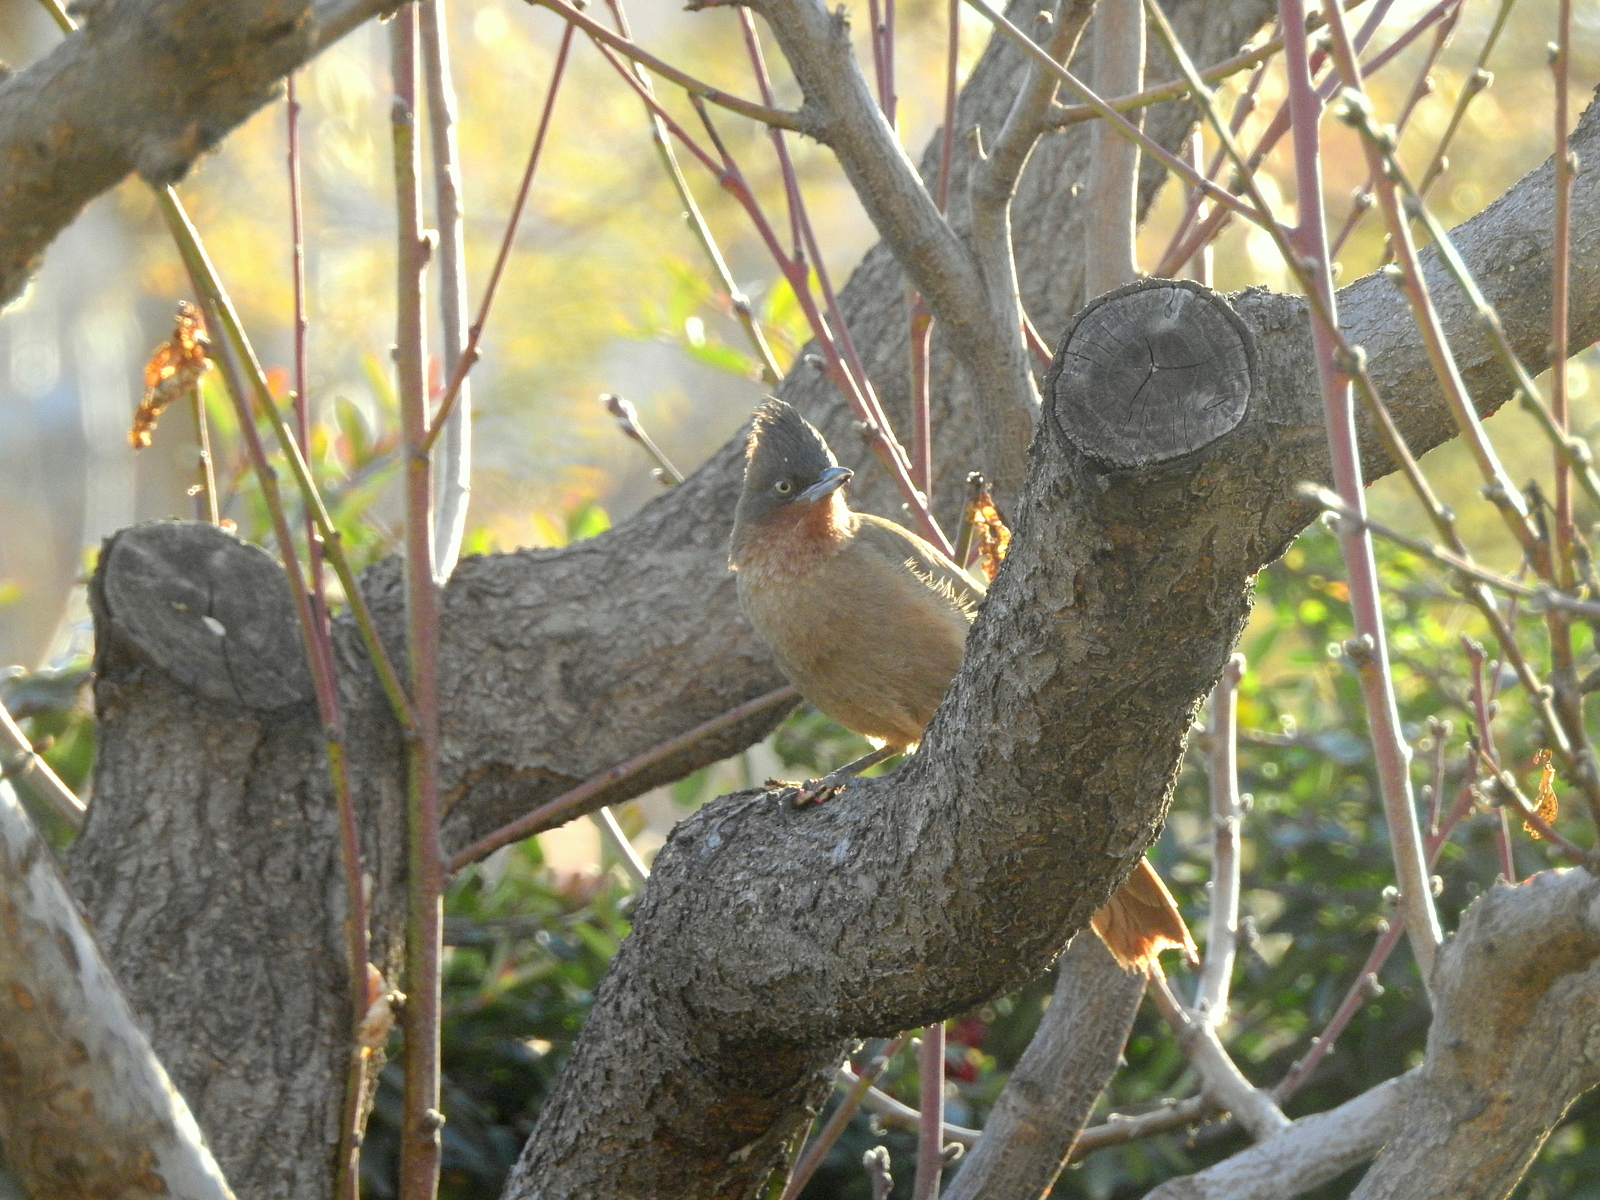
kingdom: Animalia
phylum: Chordata
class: Aves
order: Passeriformes
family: Furnariidae
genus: Pseudoseisura
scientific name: Pseudoseisura lophotes
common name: Brown cacholote
